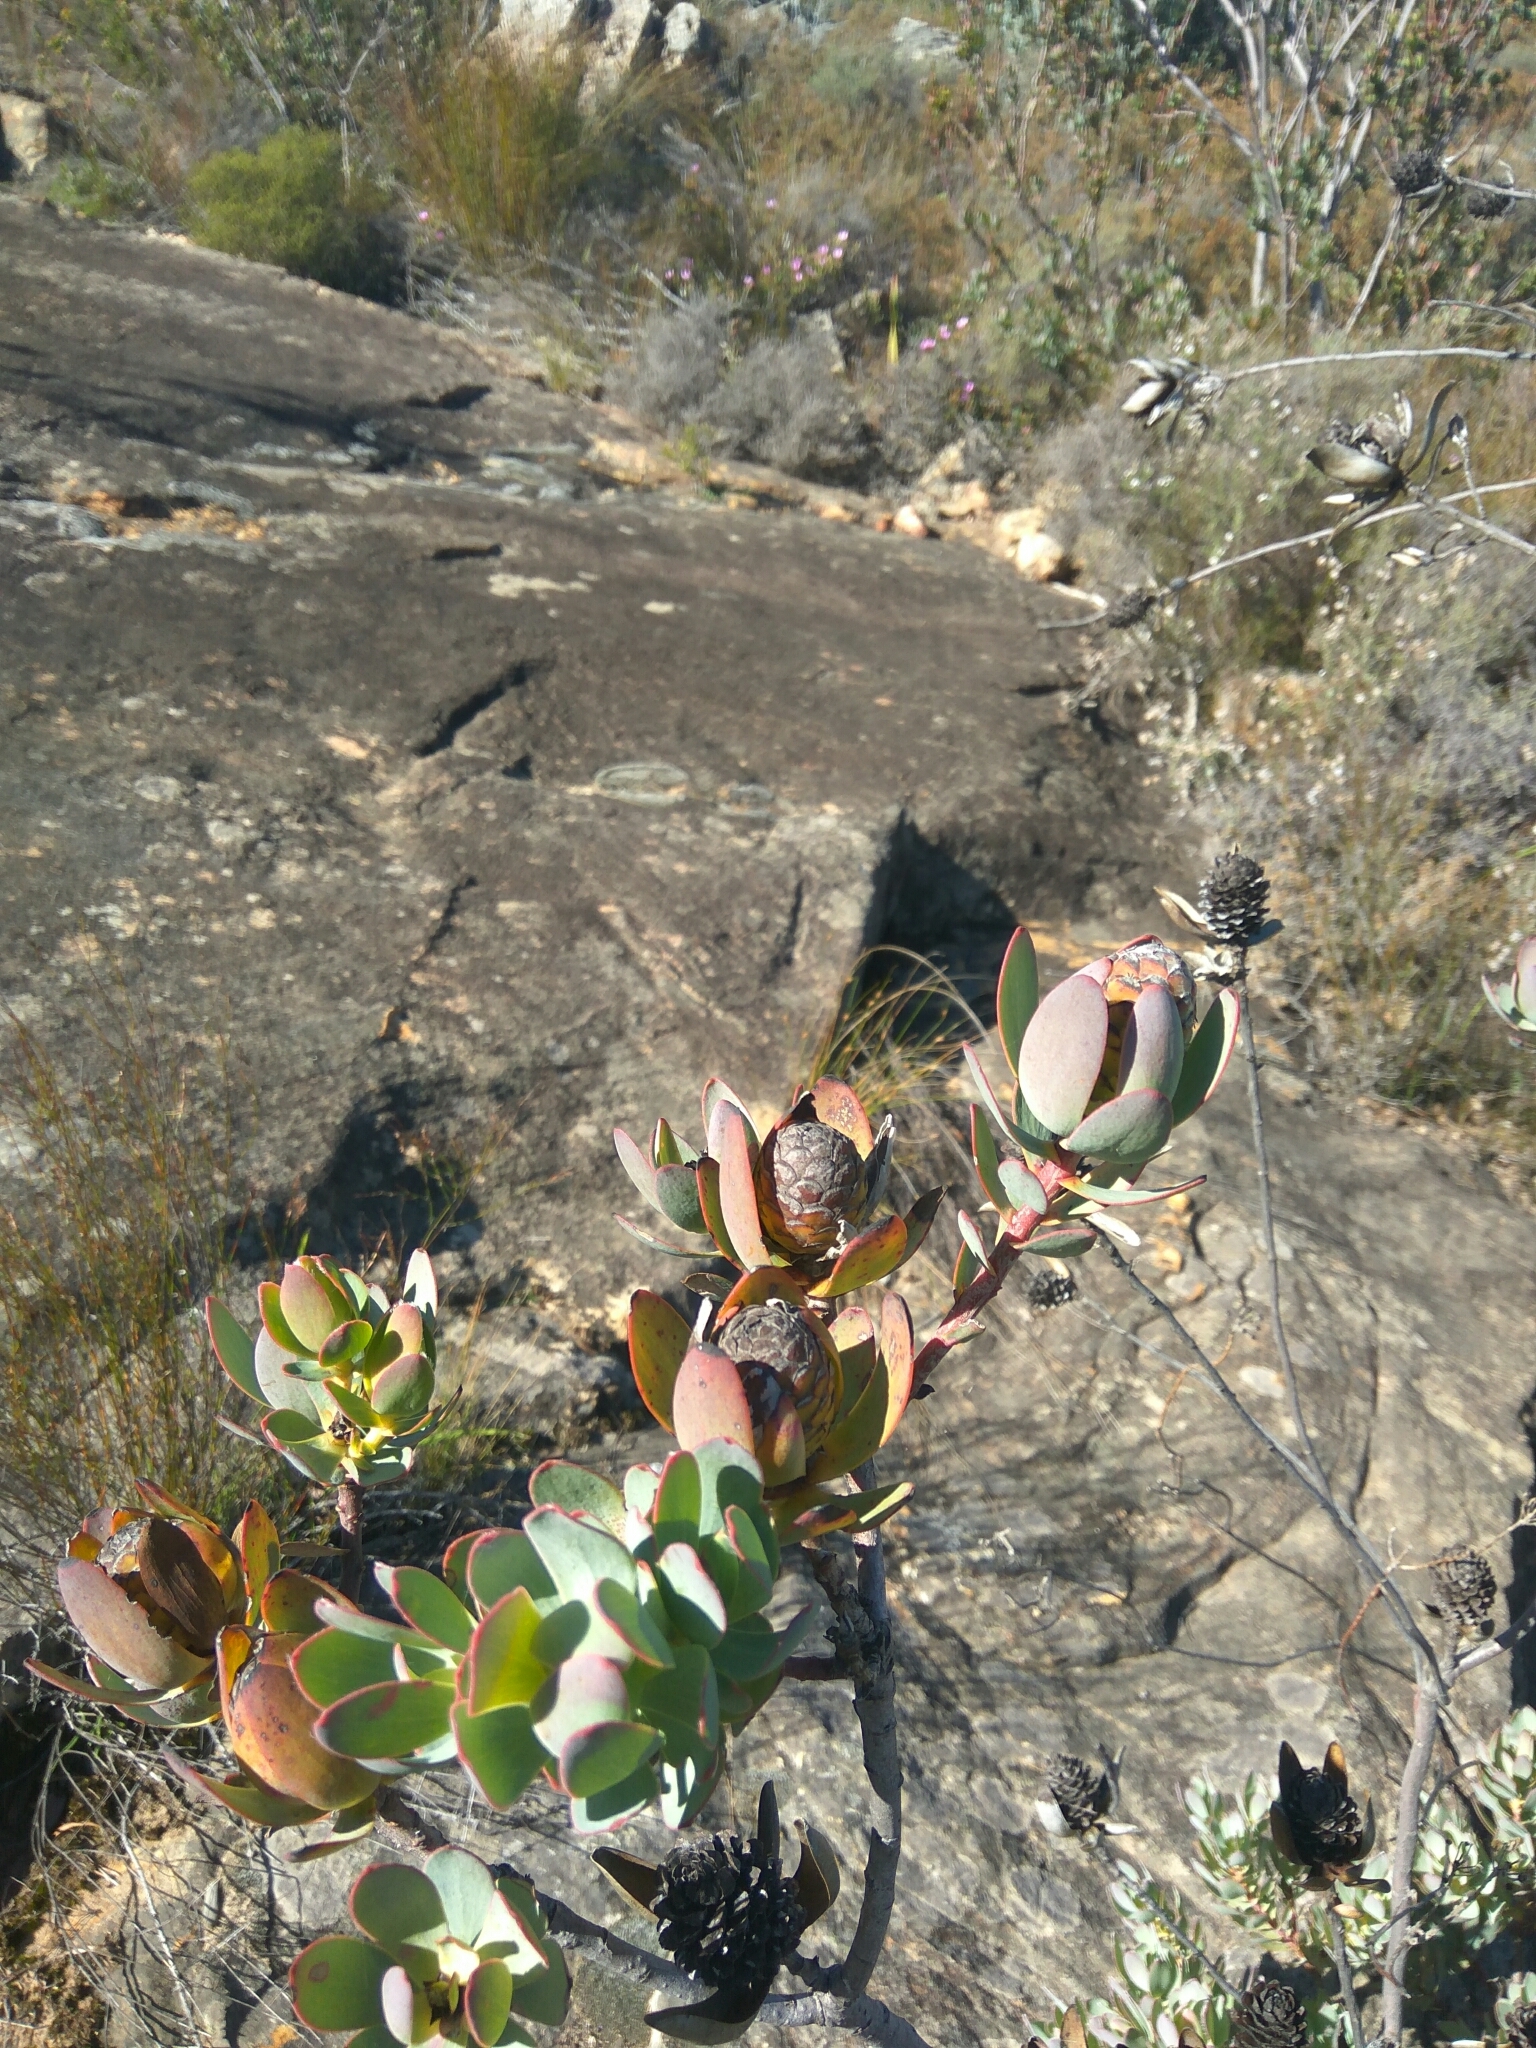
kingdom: Plantae
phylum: Tracheophyta
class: Magnoliopsida
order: Proteales
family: Proteaceae
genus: Leucadendron
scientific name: Leucadendron discolor
